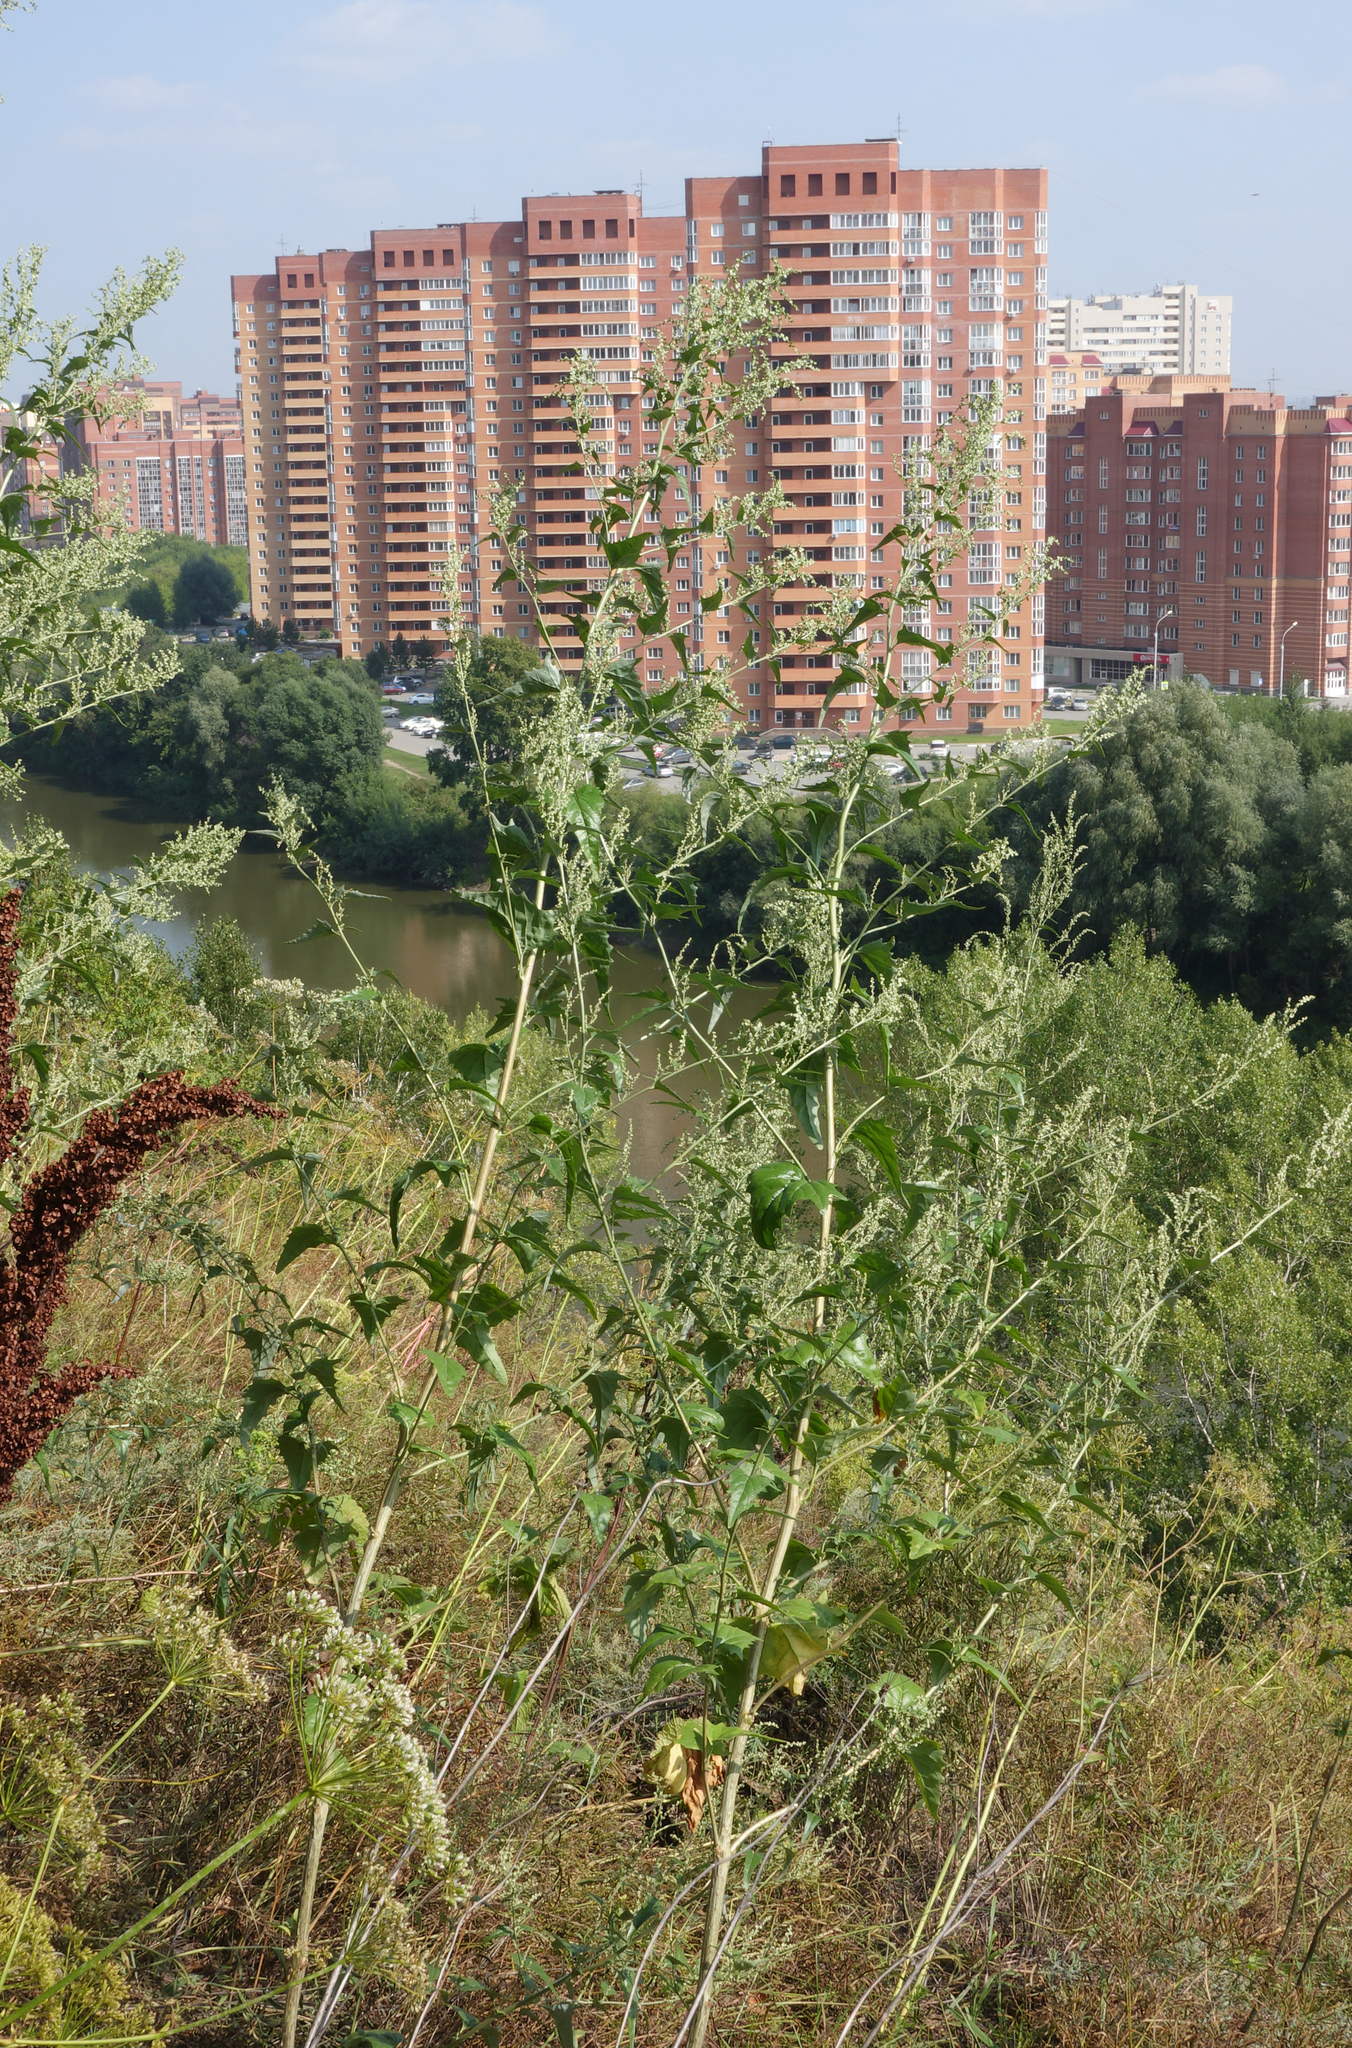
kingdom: Plantae
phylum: Tracheophyta
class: Magnoliopsida
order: Caryophyllales
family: Amaranthaceae
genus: Chenopodium
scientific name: Chenopodium album
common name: Fat-hen
